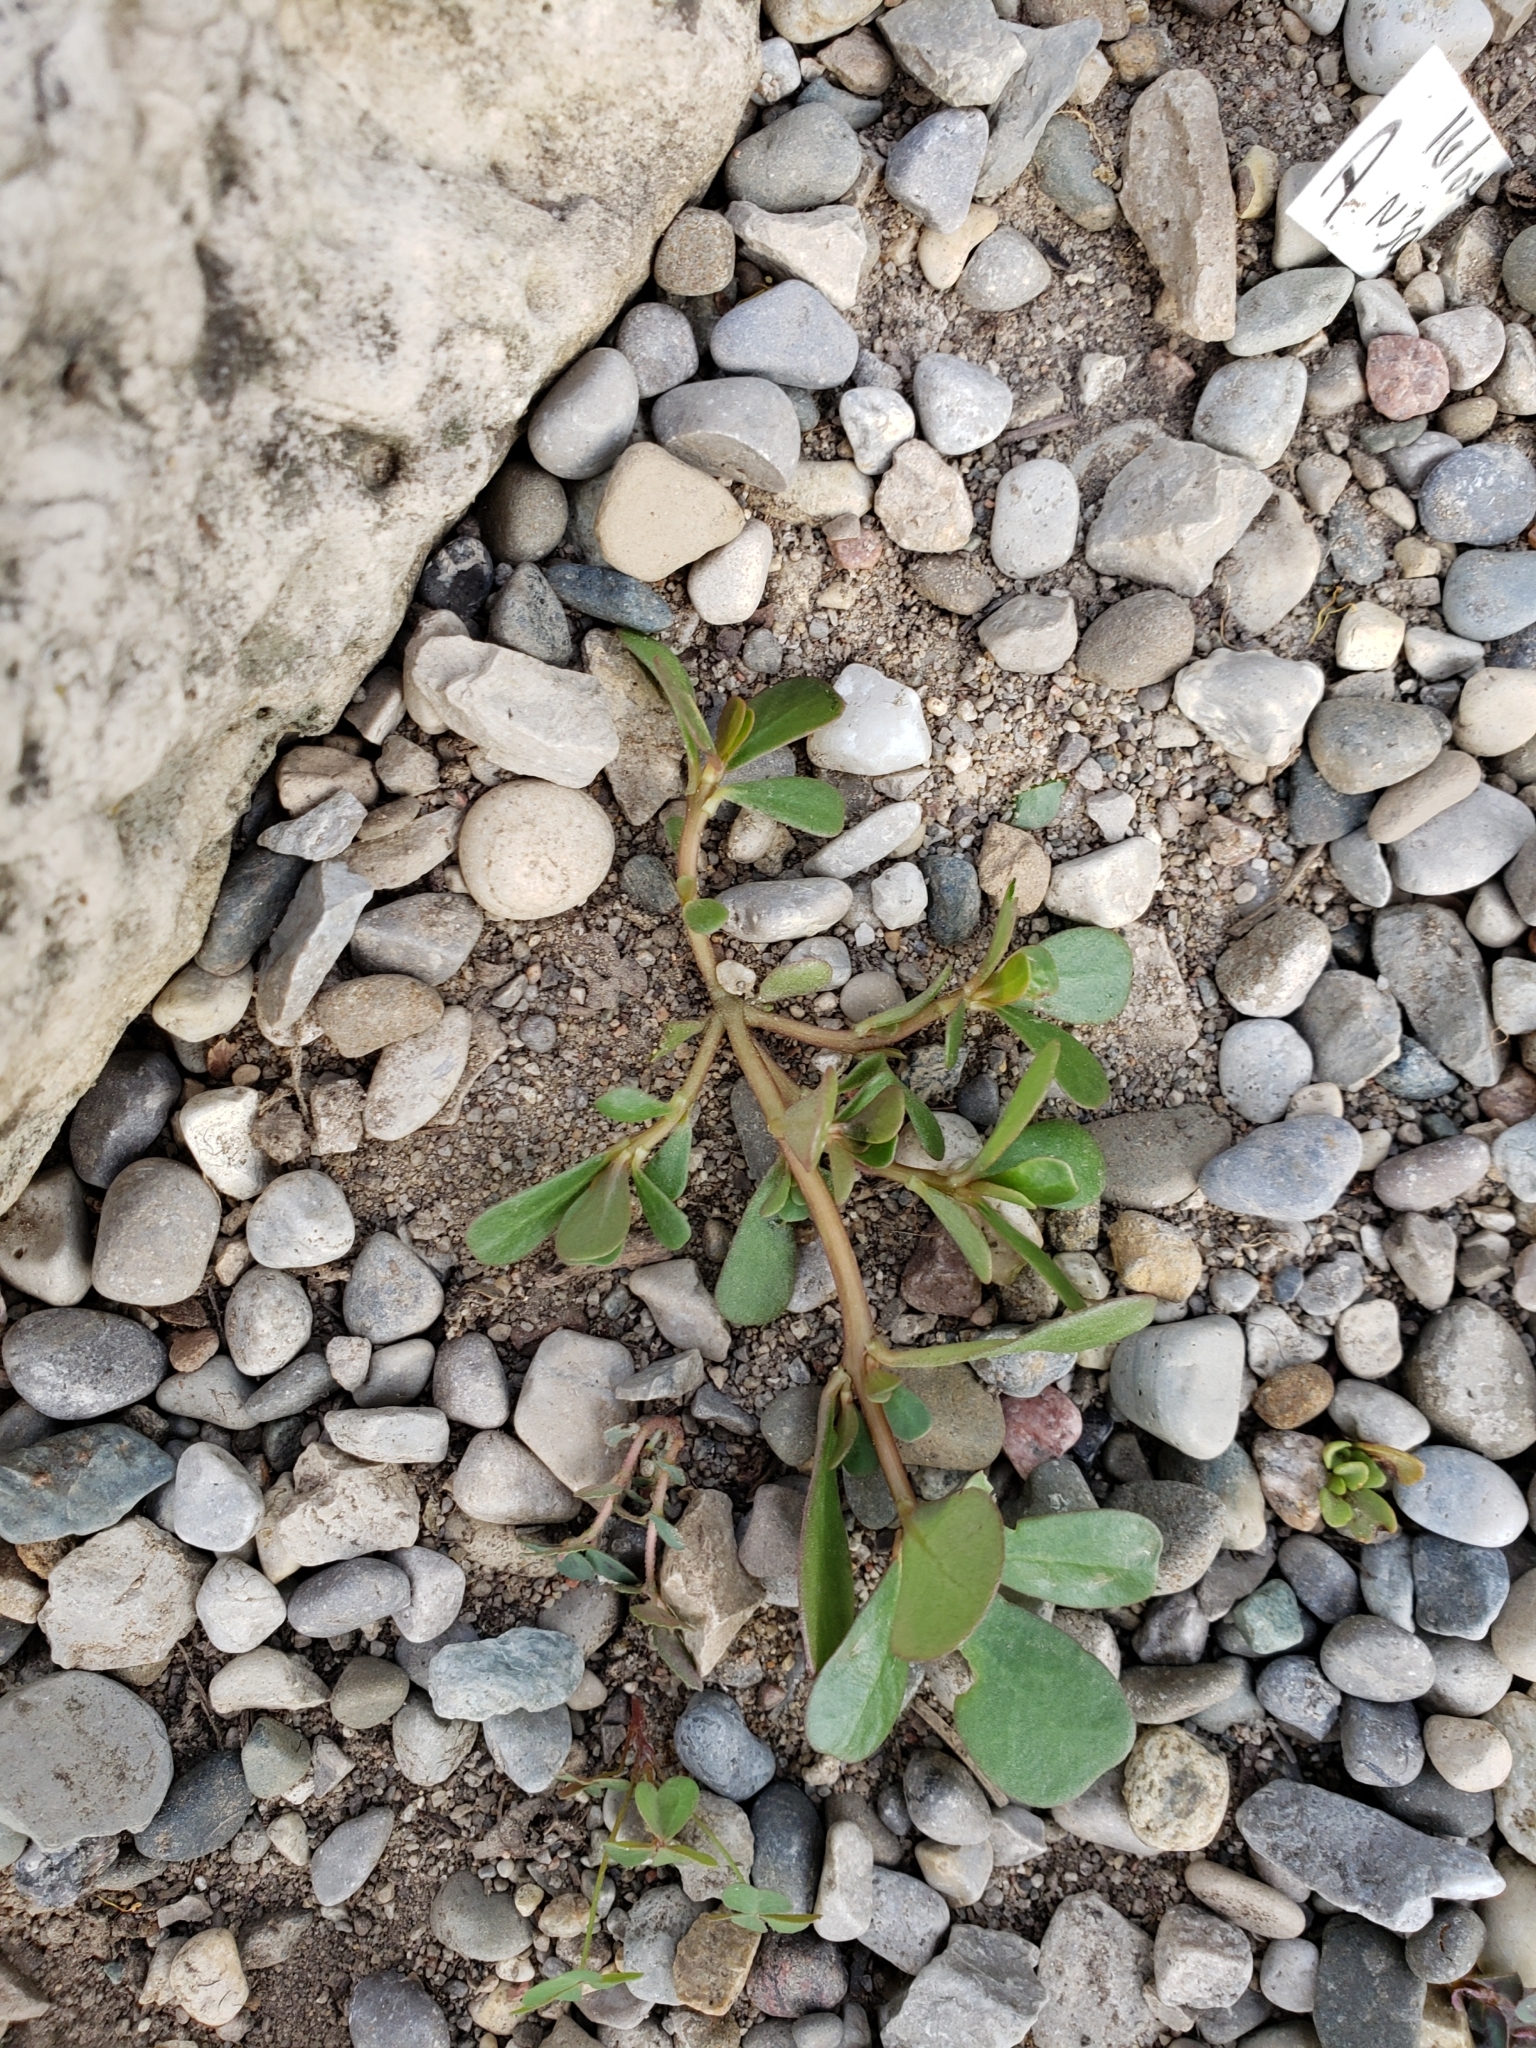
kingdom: Plantae
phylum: Tracheophyta
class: Magnoliopsida
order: Caryophyllales
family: Portulacaceae
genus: Portulaca
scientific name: Portulaca oleracea
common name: Common purslane
